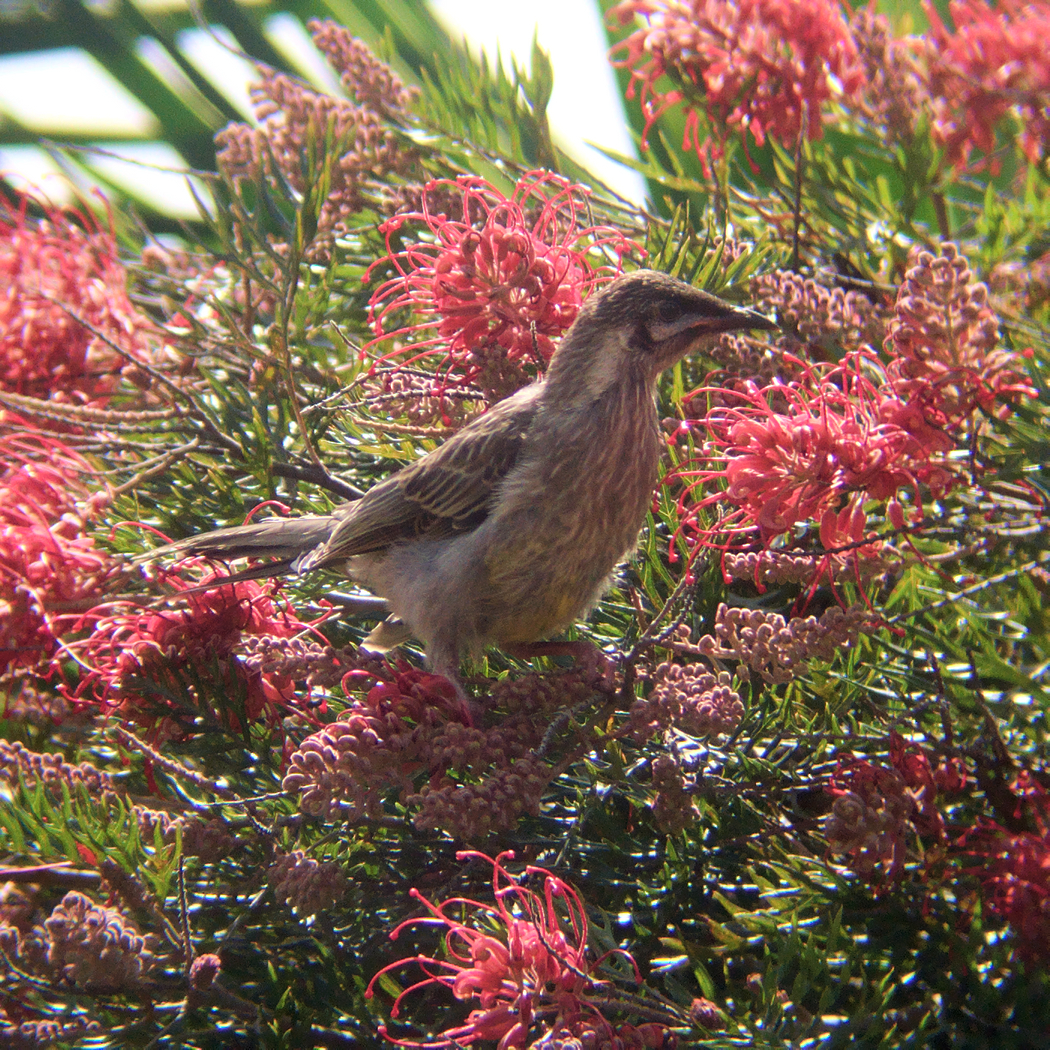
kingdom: Animalia
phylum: Chordata
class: Aves
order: Passeriformes
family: Meliphagidae
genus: Anthochaera
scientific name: Anthochaera carunculata
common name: Red wattlebird
